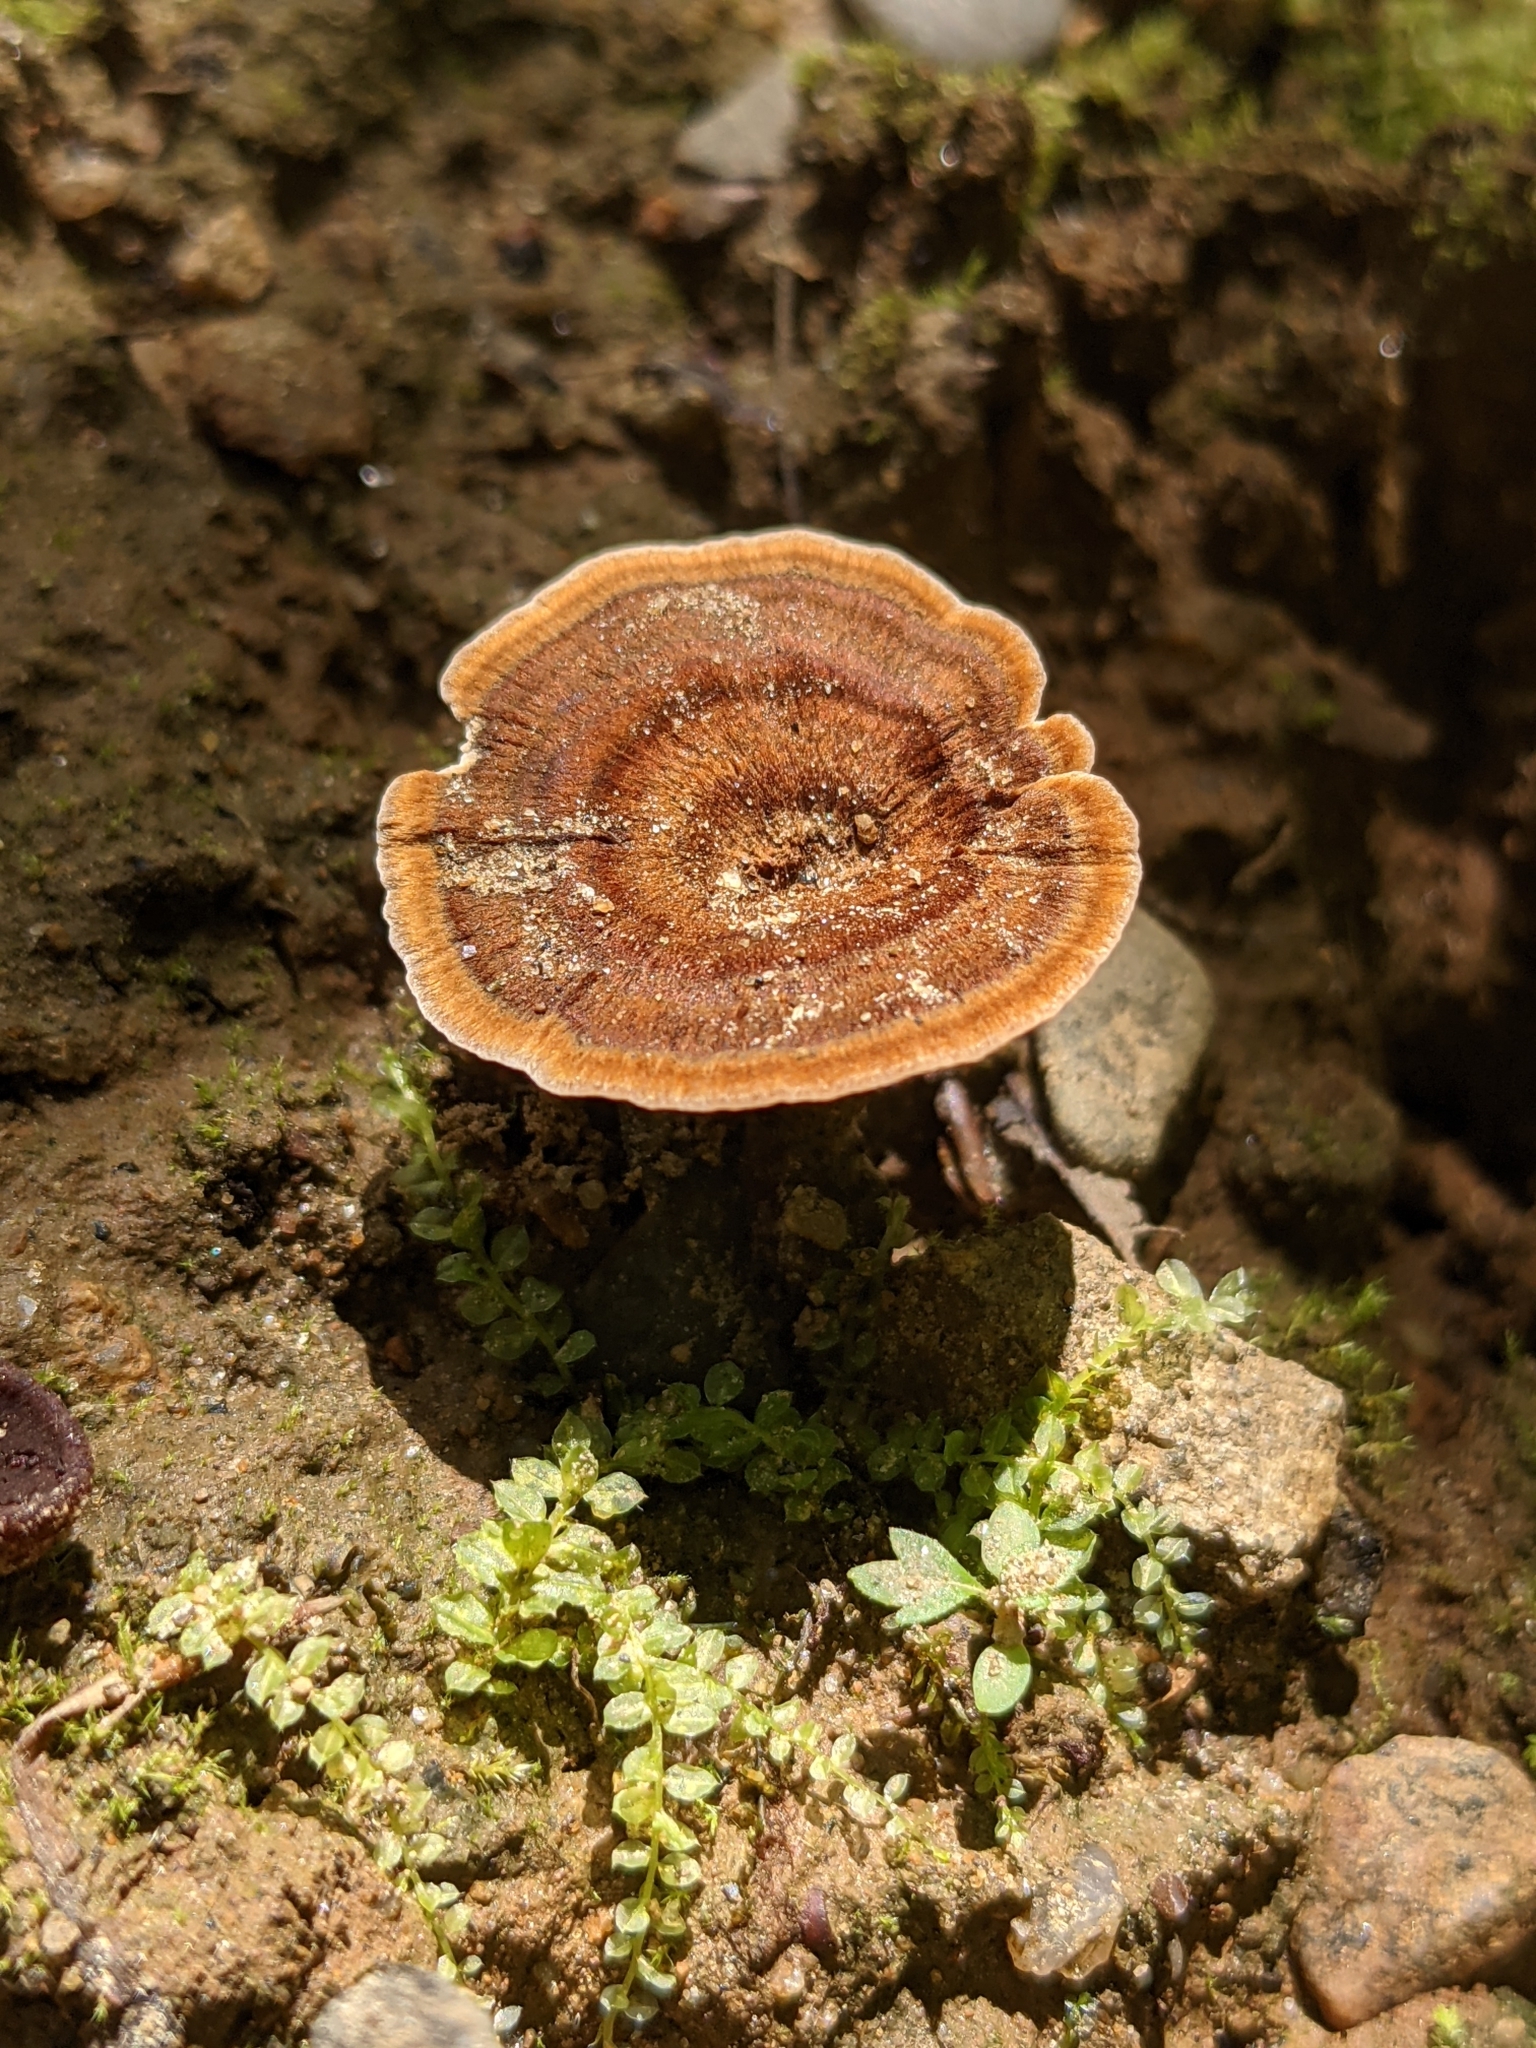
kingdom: Fungi
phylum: Basidiomycota
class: Agaricomycetes
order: Hymenochaetales
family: Hymenochaetaceae
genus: Coltricia
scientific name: Coltricia perennis
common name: Tiger's eye
